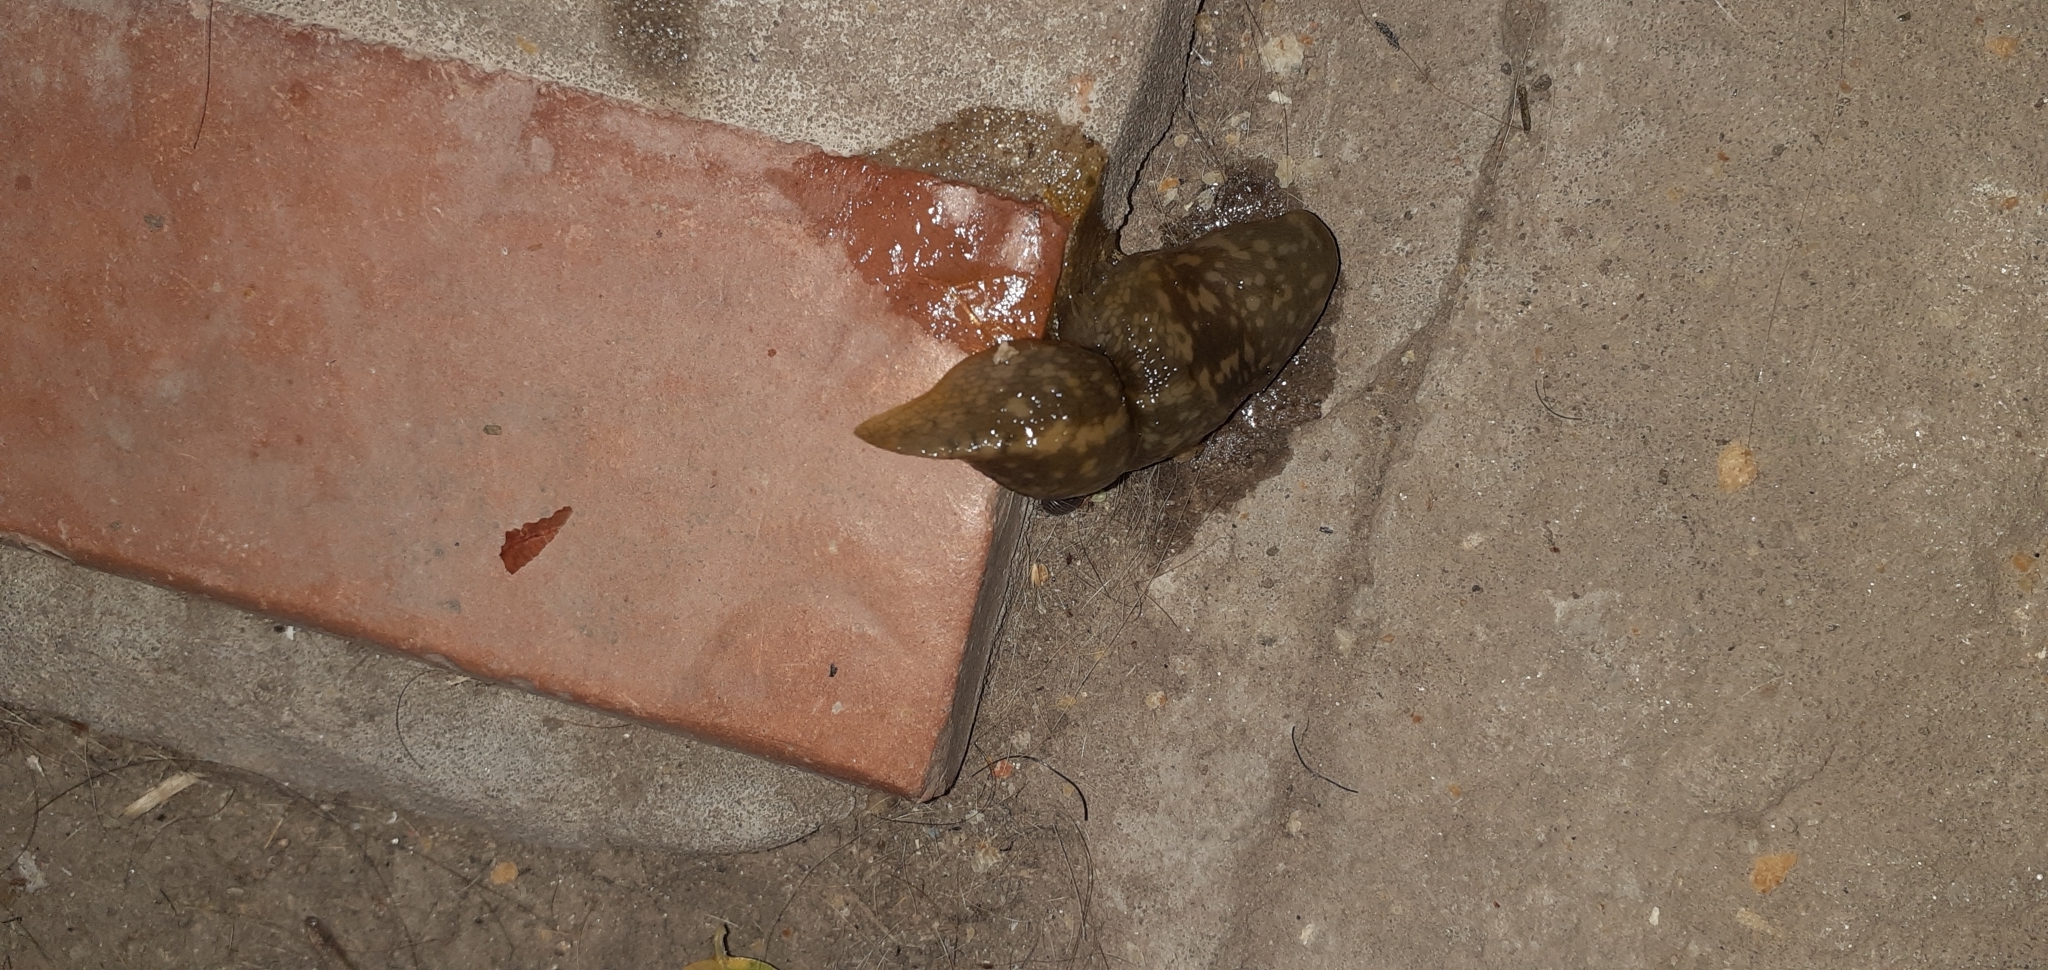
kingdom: Animalia
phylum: Mollusca
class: Gastropoda
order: Stylommatophora
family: Limacidae
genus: Limacus
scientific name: Limacus flavus
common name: Yellow gardenslug
